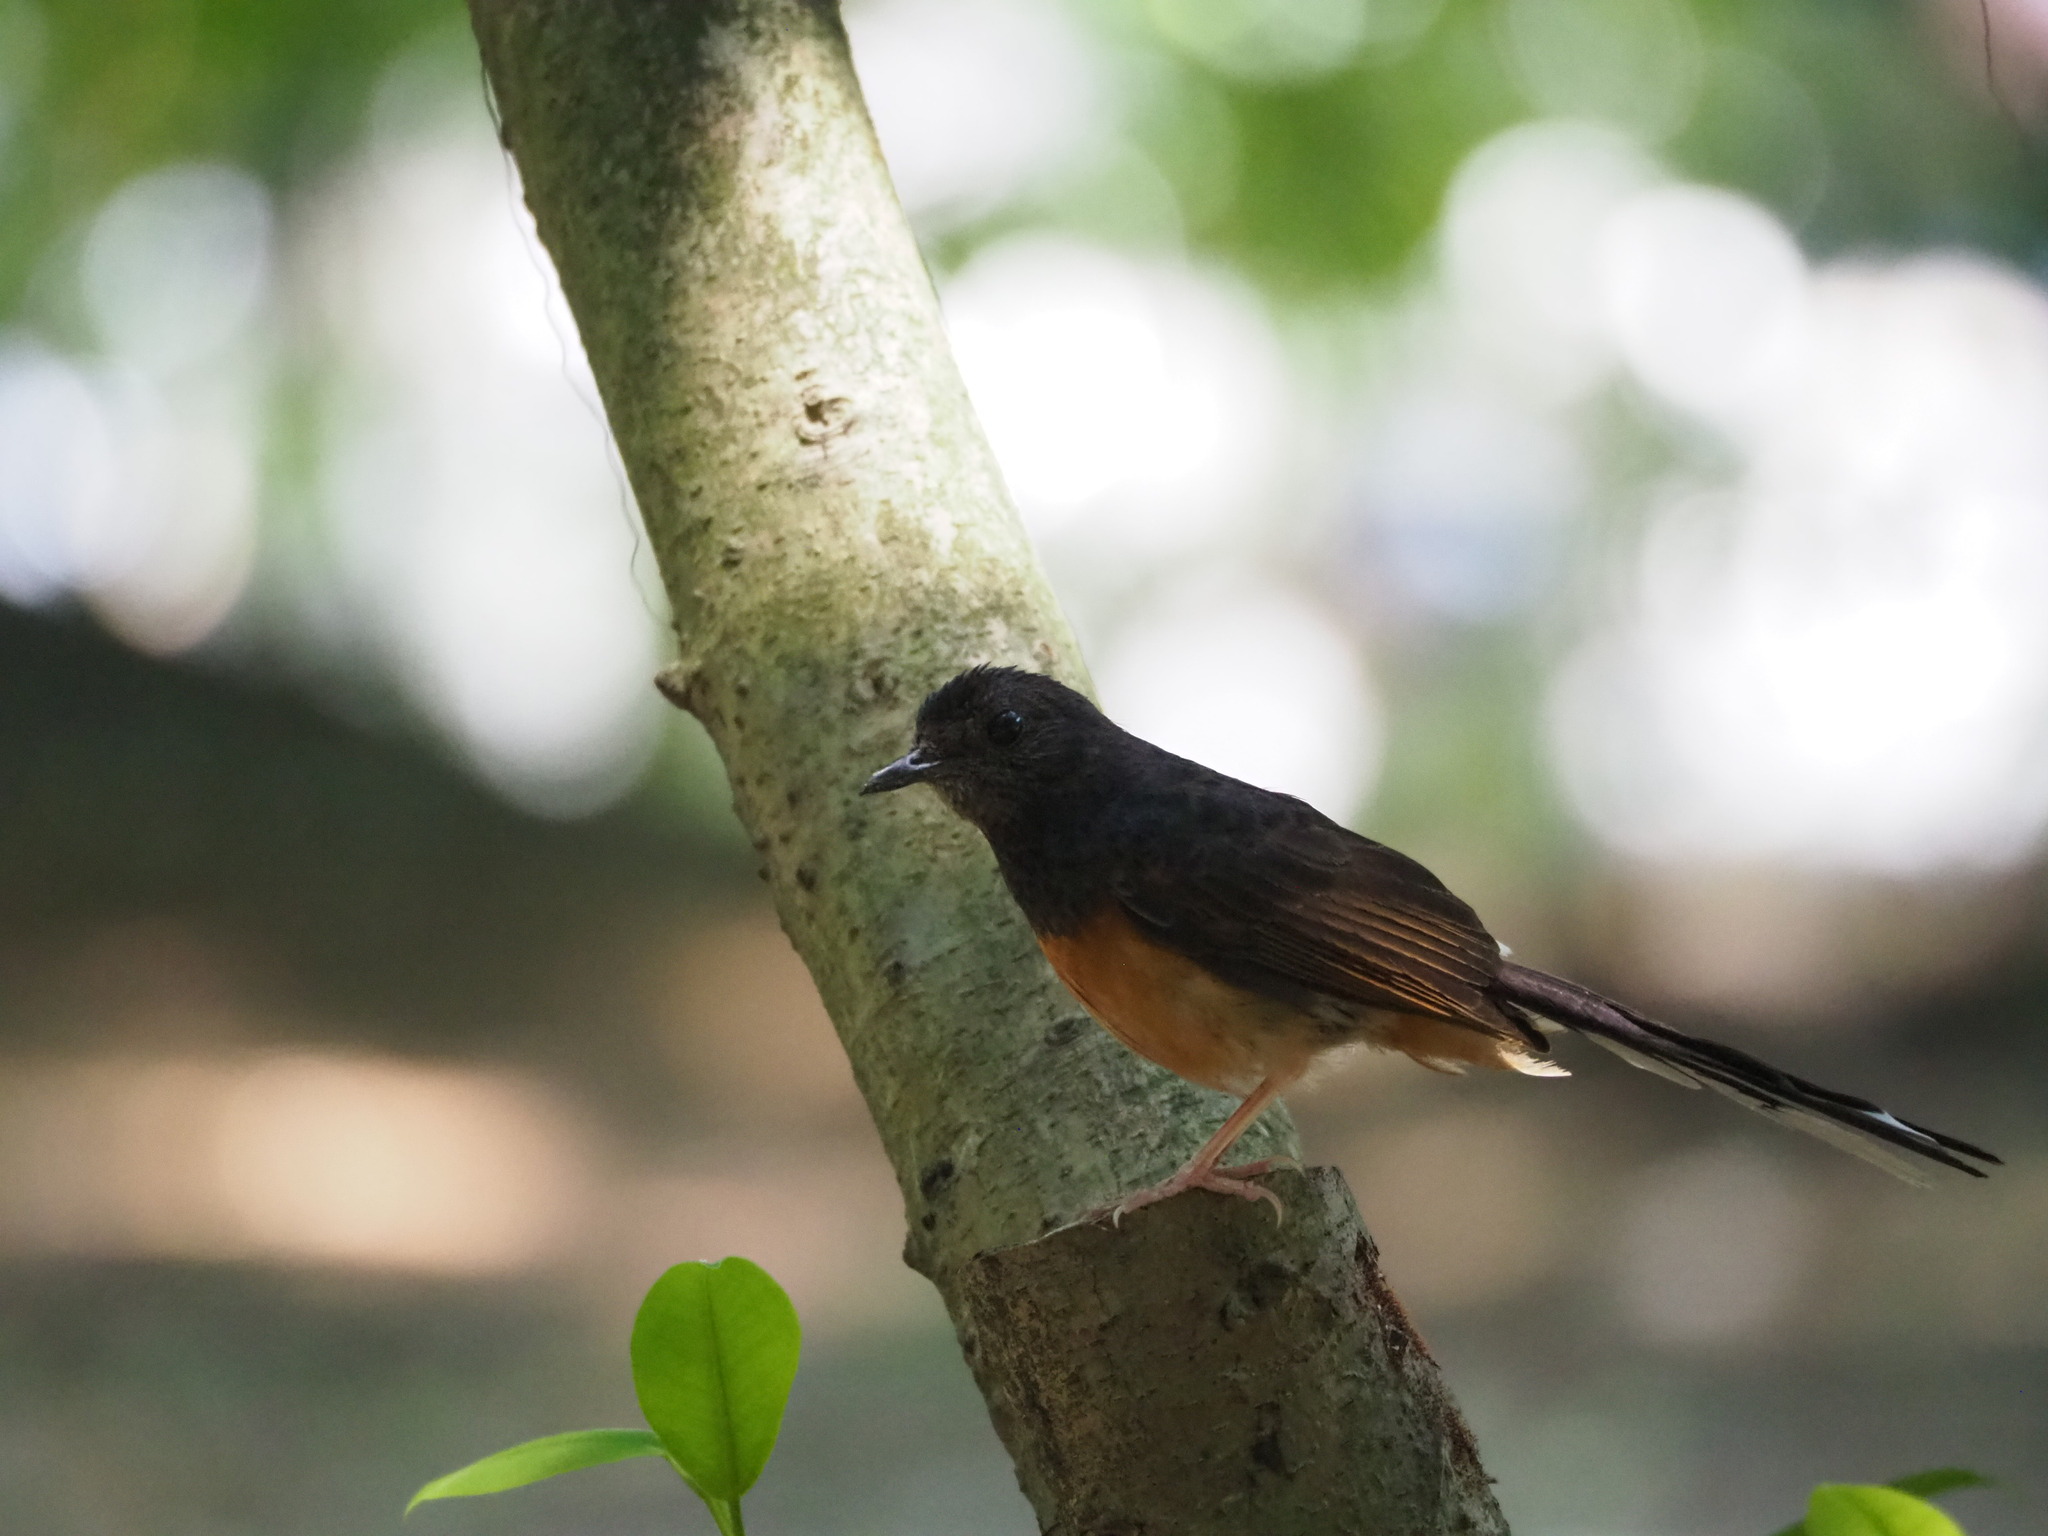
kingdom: Animalia
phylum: Chordata
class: Aves
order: Passeriformes
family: Muscicapidae
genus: Copsychus
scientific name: Copsychus malabaricus
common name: White-rumped shama
